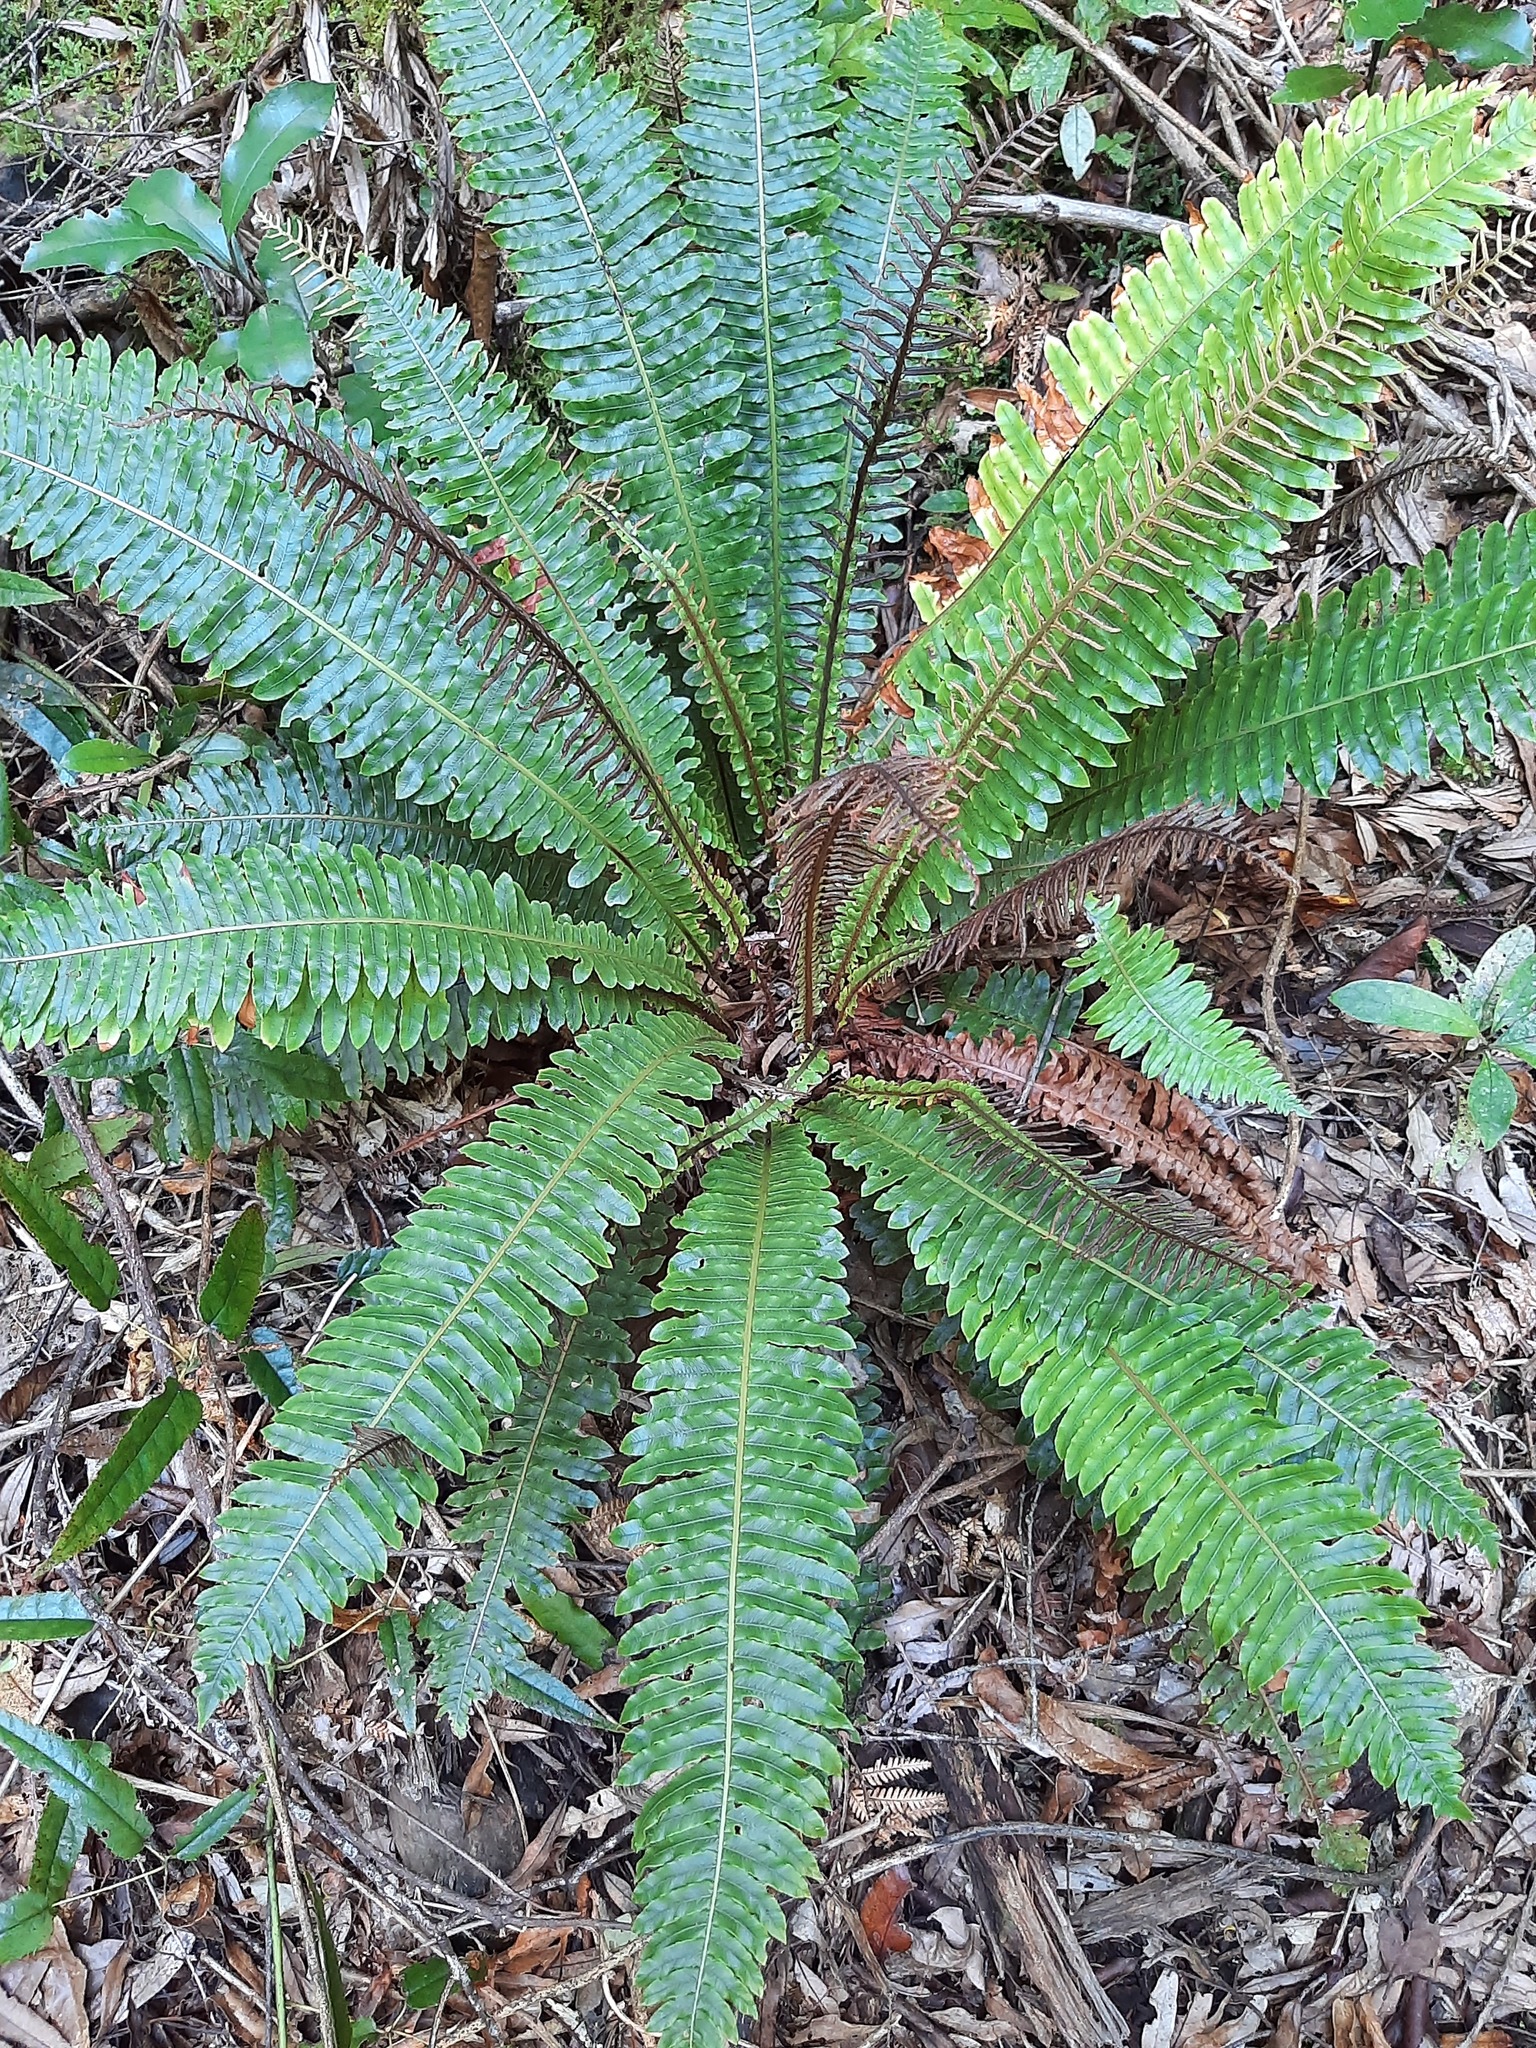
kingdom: Plantae
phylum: Tracheophyta
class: Polypodiopsida
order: Polypodiales
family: Blechnaceae
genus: Lomaria
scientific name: Lomaria discolor
